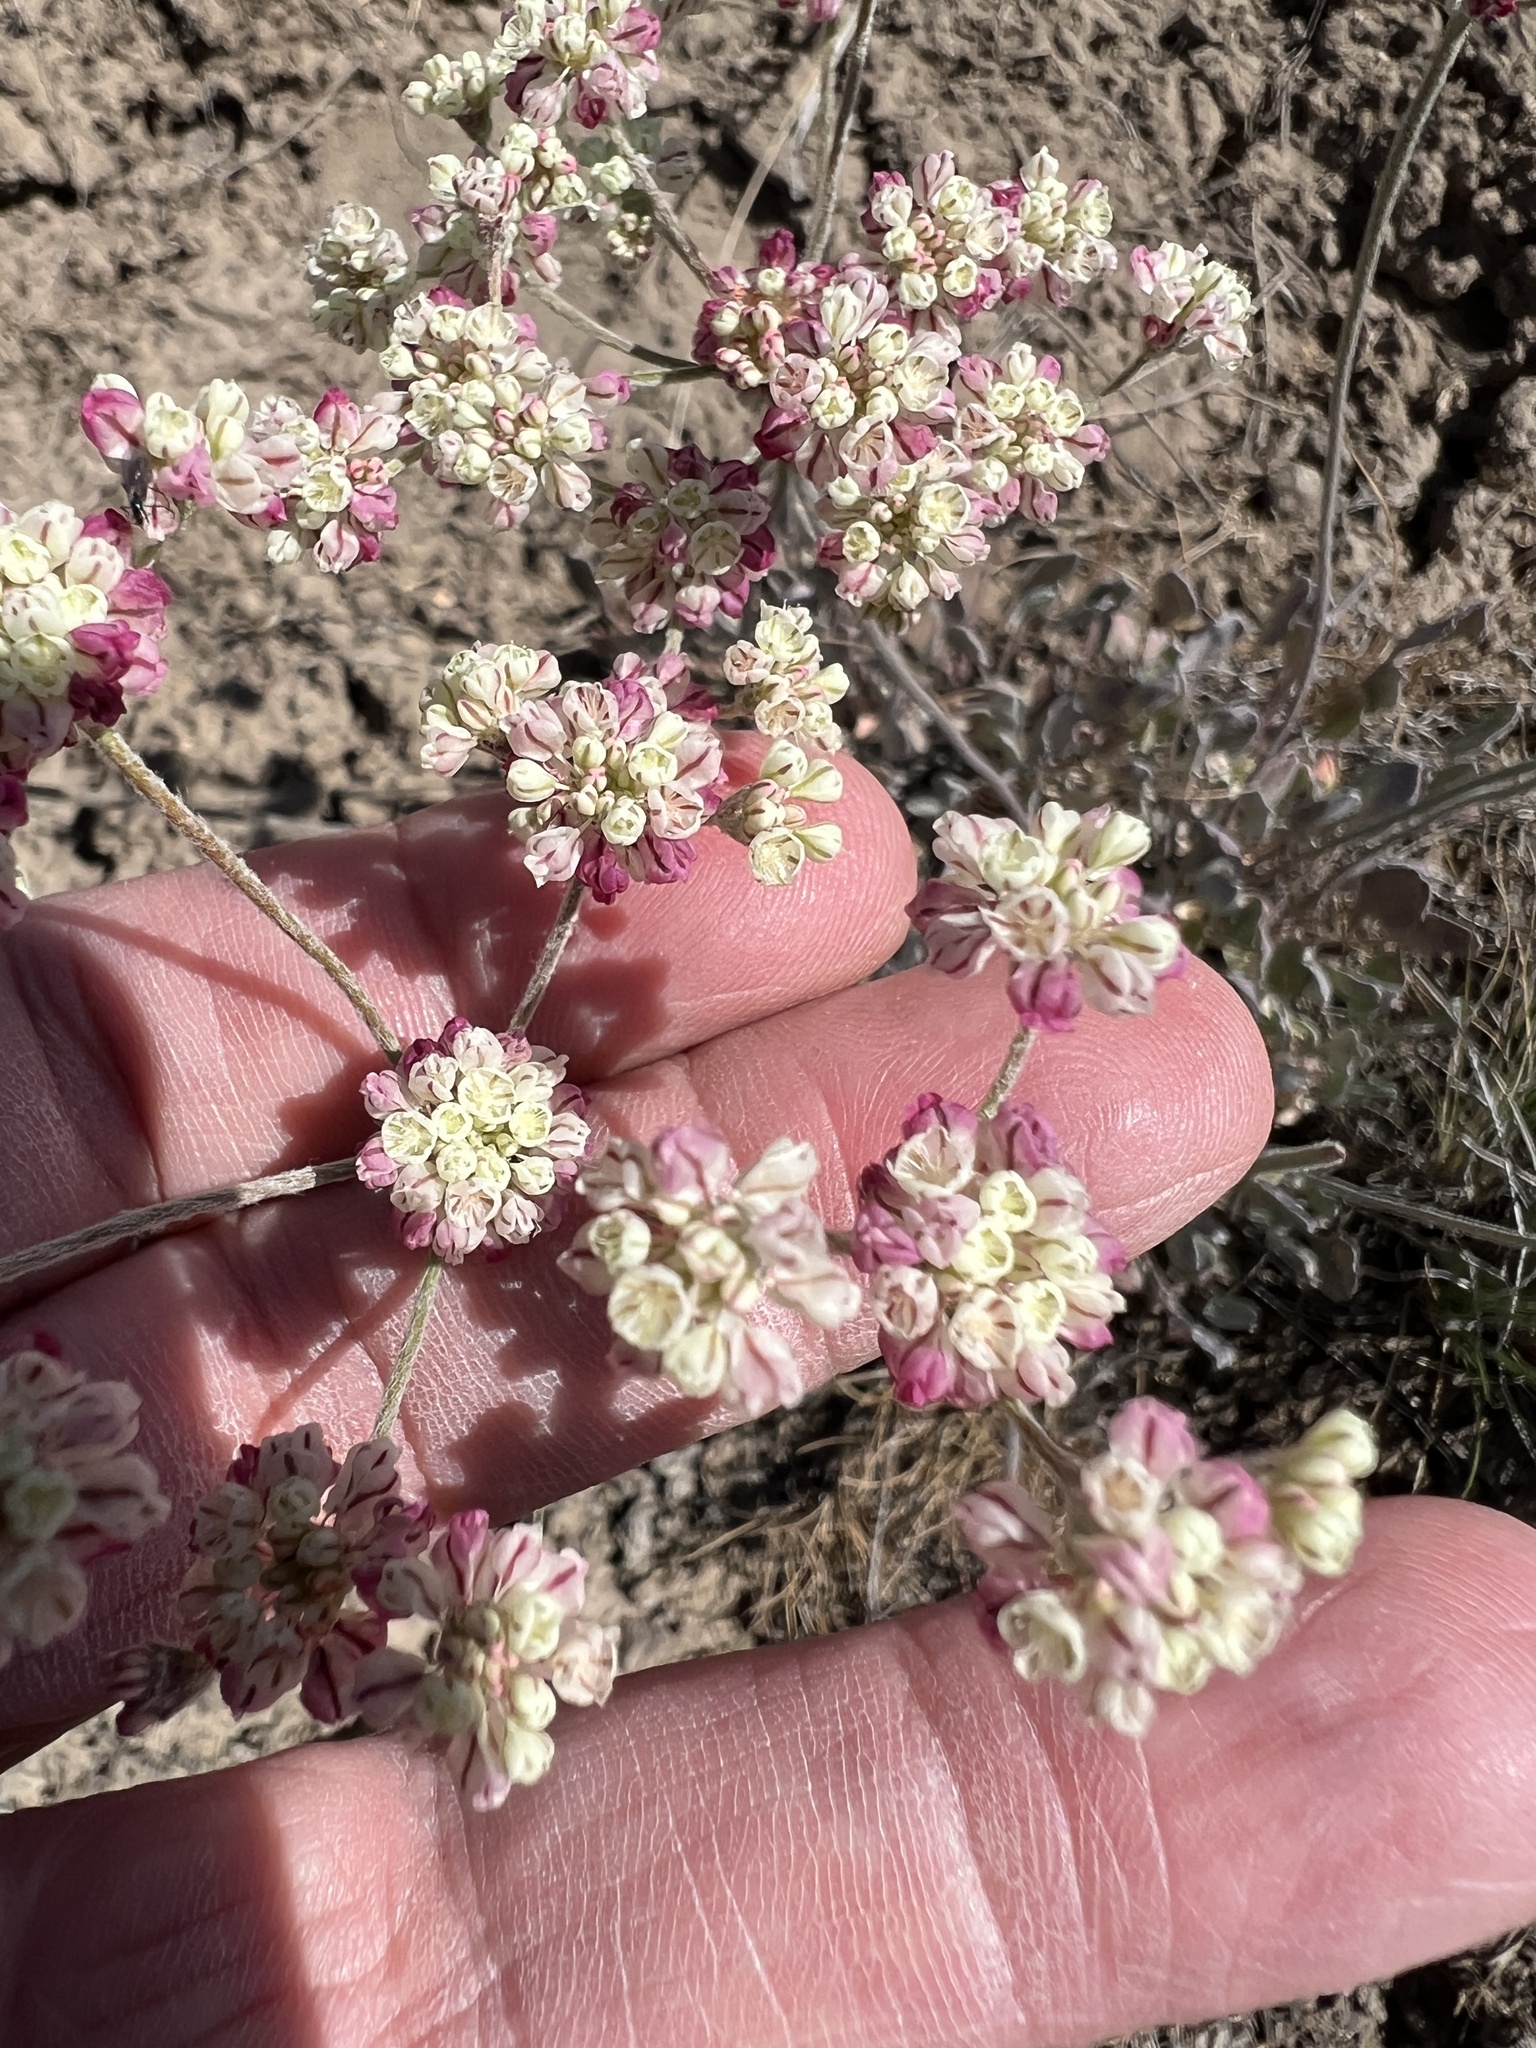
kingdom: Plantae
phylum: Tracheophyta
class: Magnoliopsida
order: Caryophyllales
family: Polygonaceae
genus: Eriogonum
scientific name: Eriogonum strictum
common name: Blue mountain buckwheat
